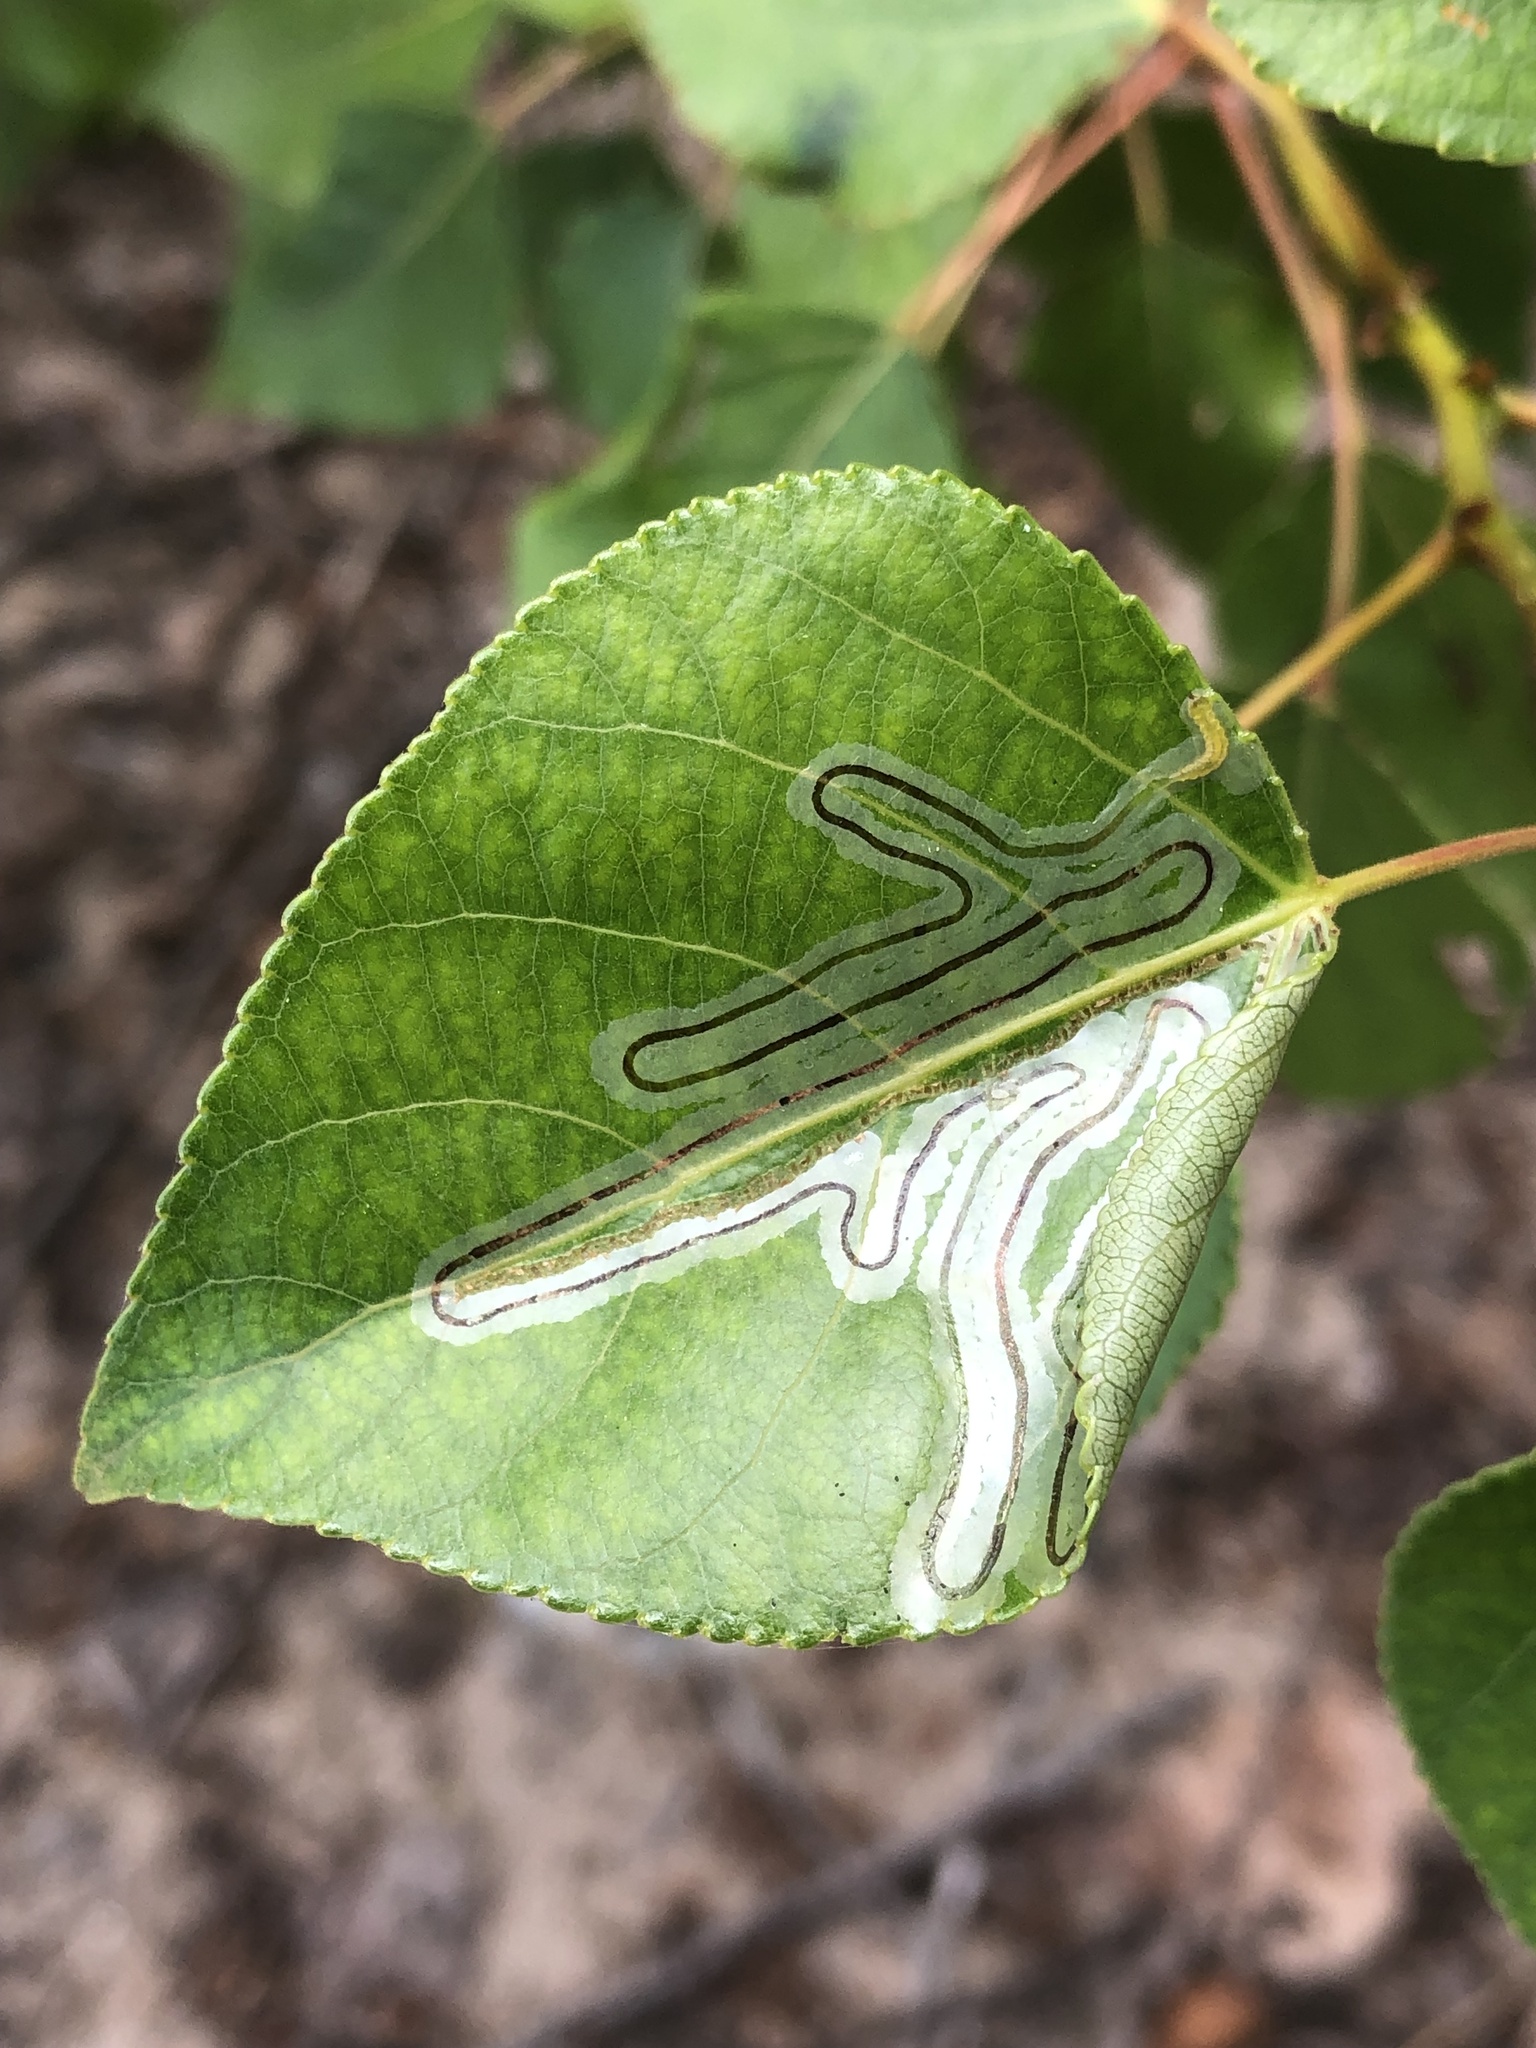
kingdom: Animalia
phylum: Arthropoda
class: Insecta
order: Lepidoptera
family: Gracillariidae
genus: Phyllocnistis
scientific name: Phyllocnistis populiella
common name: Aspen serpentine leafminer moth
